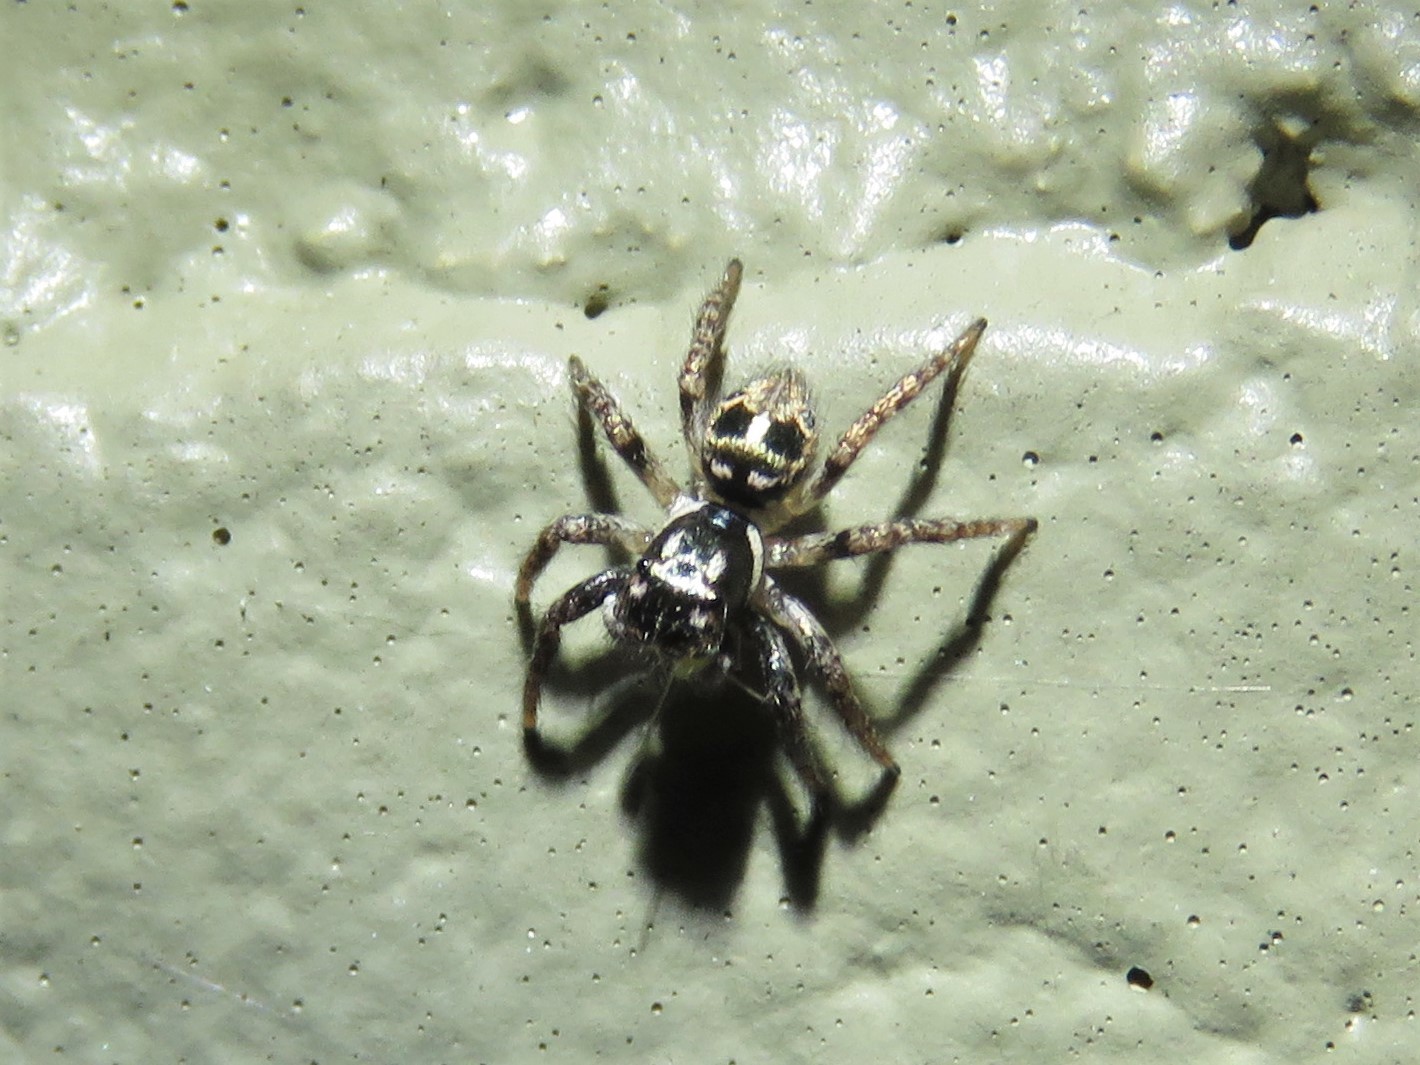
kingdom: Animalia
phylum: Arthropoda
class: Arachnida
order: Araneae
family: Salticidae
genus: Anasaitis
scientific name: Anasaitis canosa
